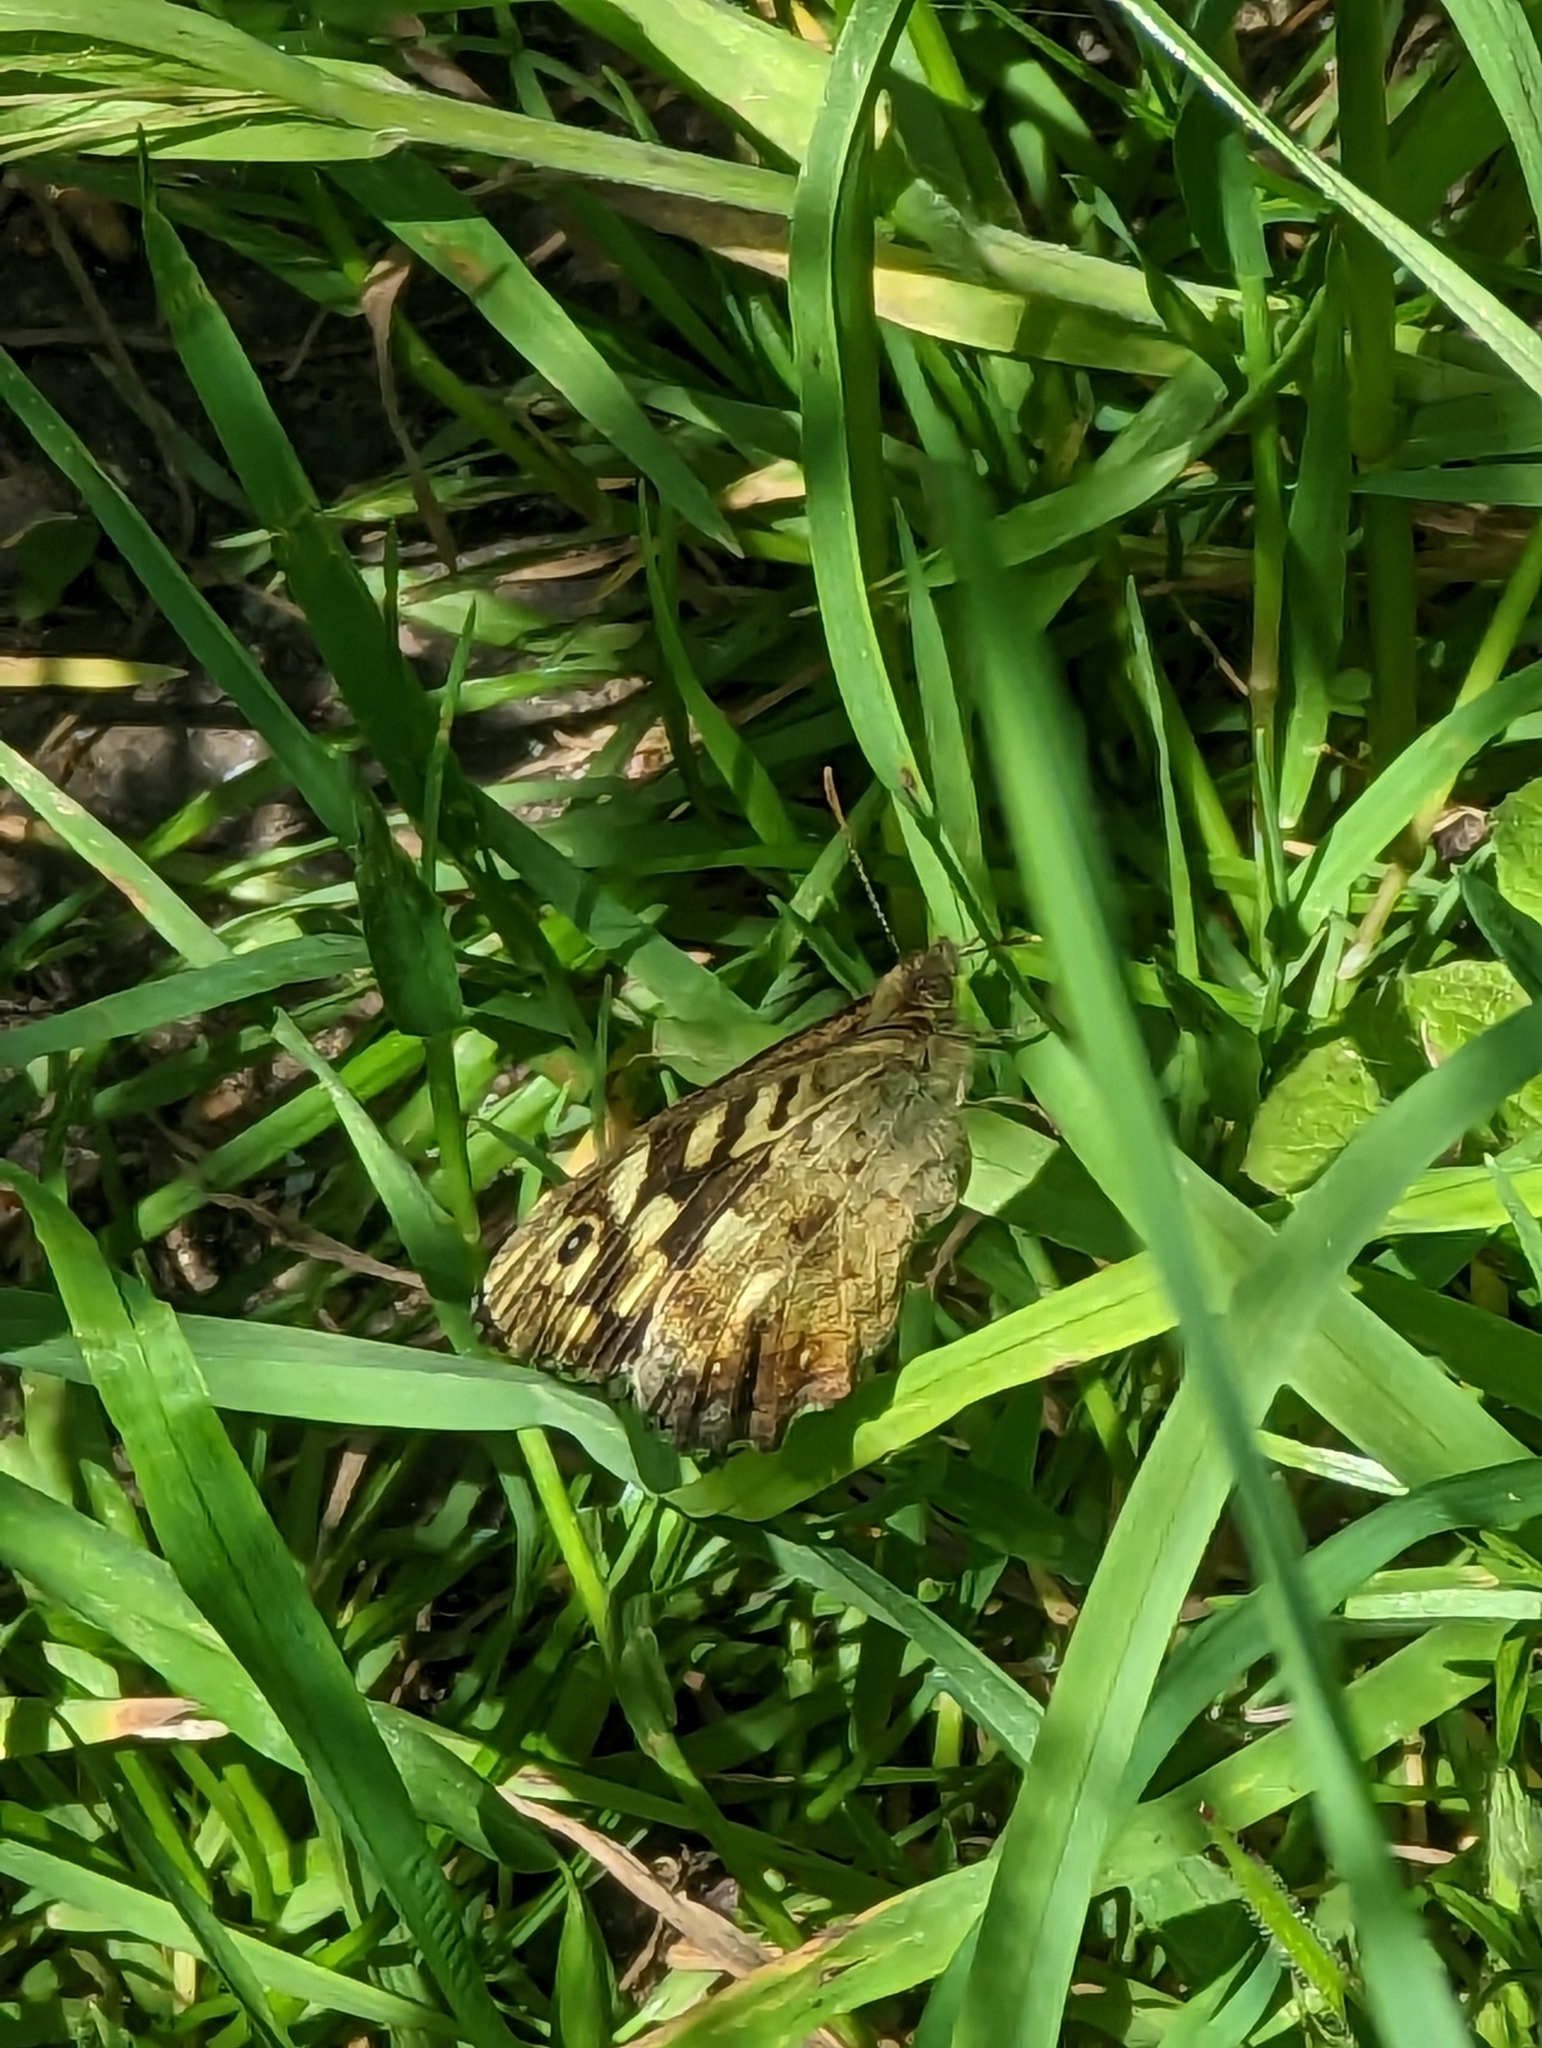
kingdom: Animalia
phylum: Arthropoda
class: Insecta
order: Lepidoptera
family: Nymphalidae
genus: Pararge
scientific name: Pararge aegeria
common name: Speckled wood
